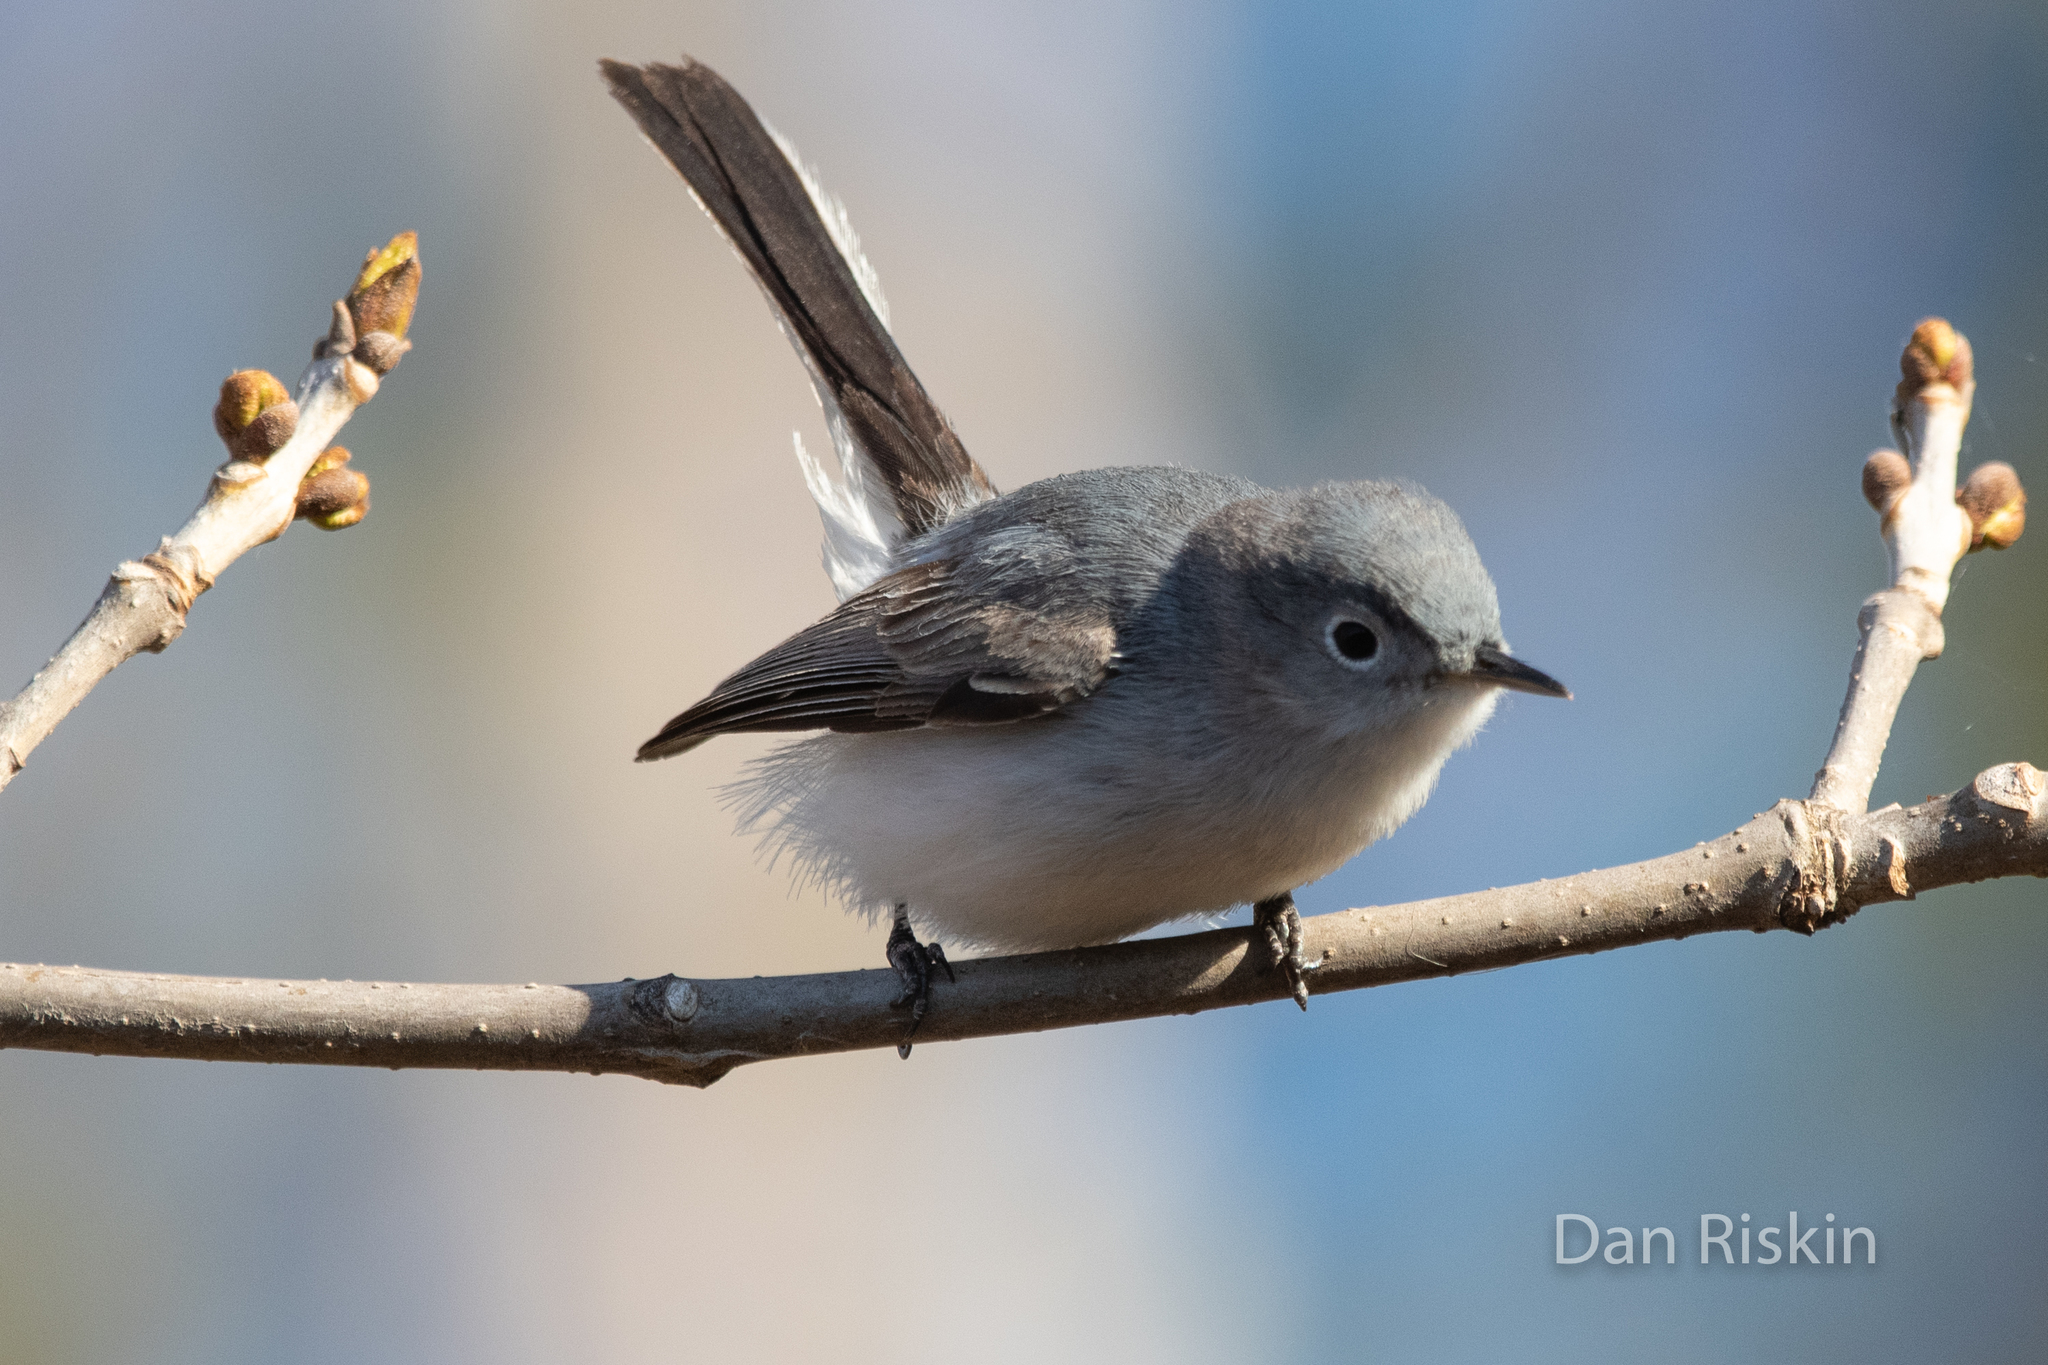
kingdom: Animalia
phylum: Chordata
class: Aves
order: Passeriformes
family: Polioptilidae
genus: Polioptila
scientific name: Polioptila caerulea
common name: Blue-gray gnatcatcher
